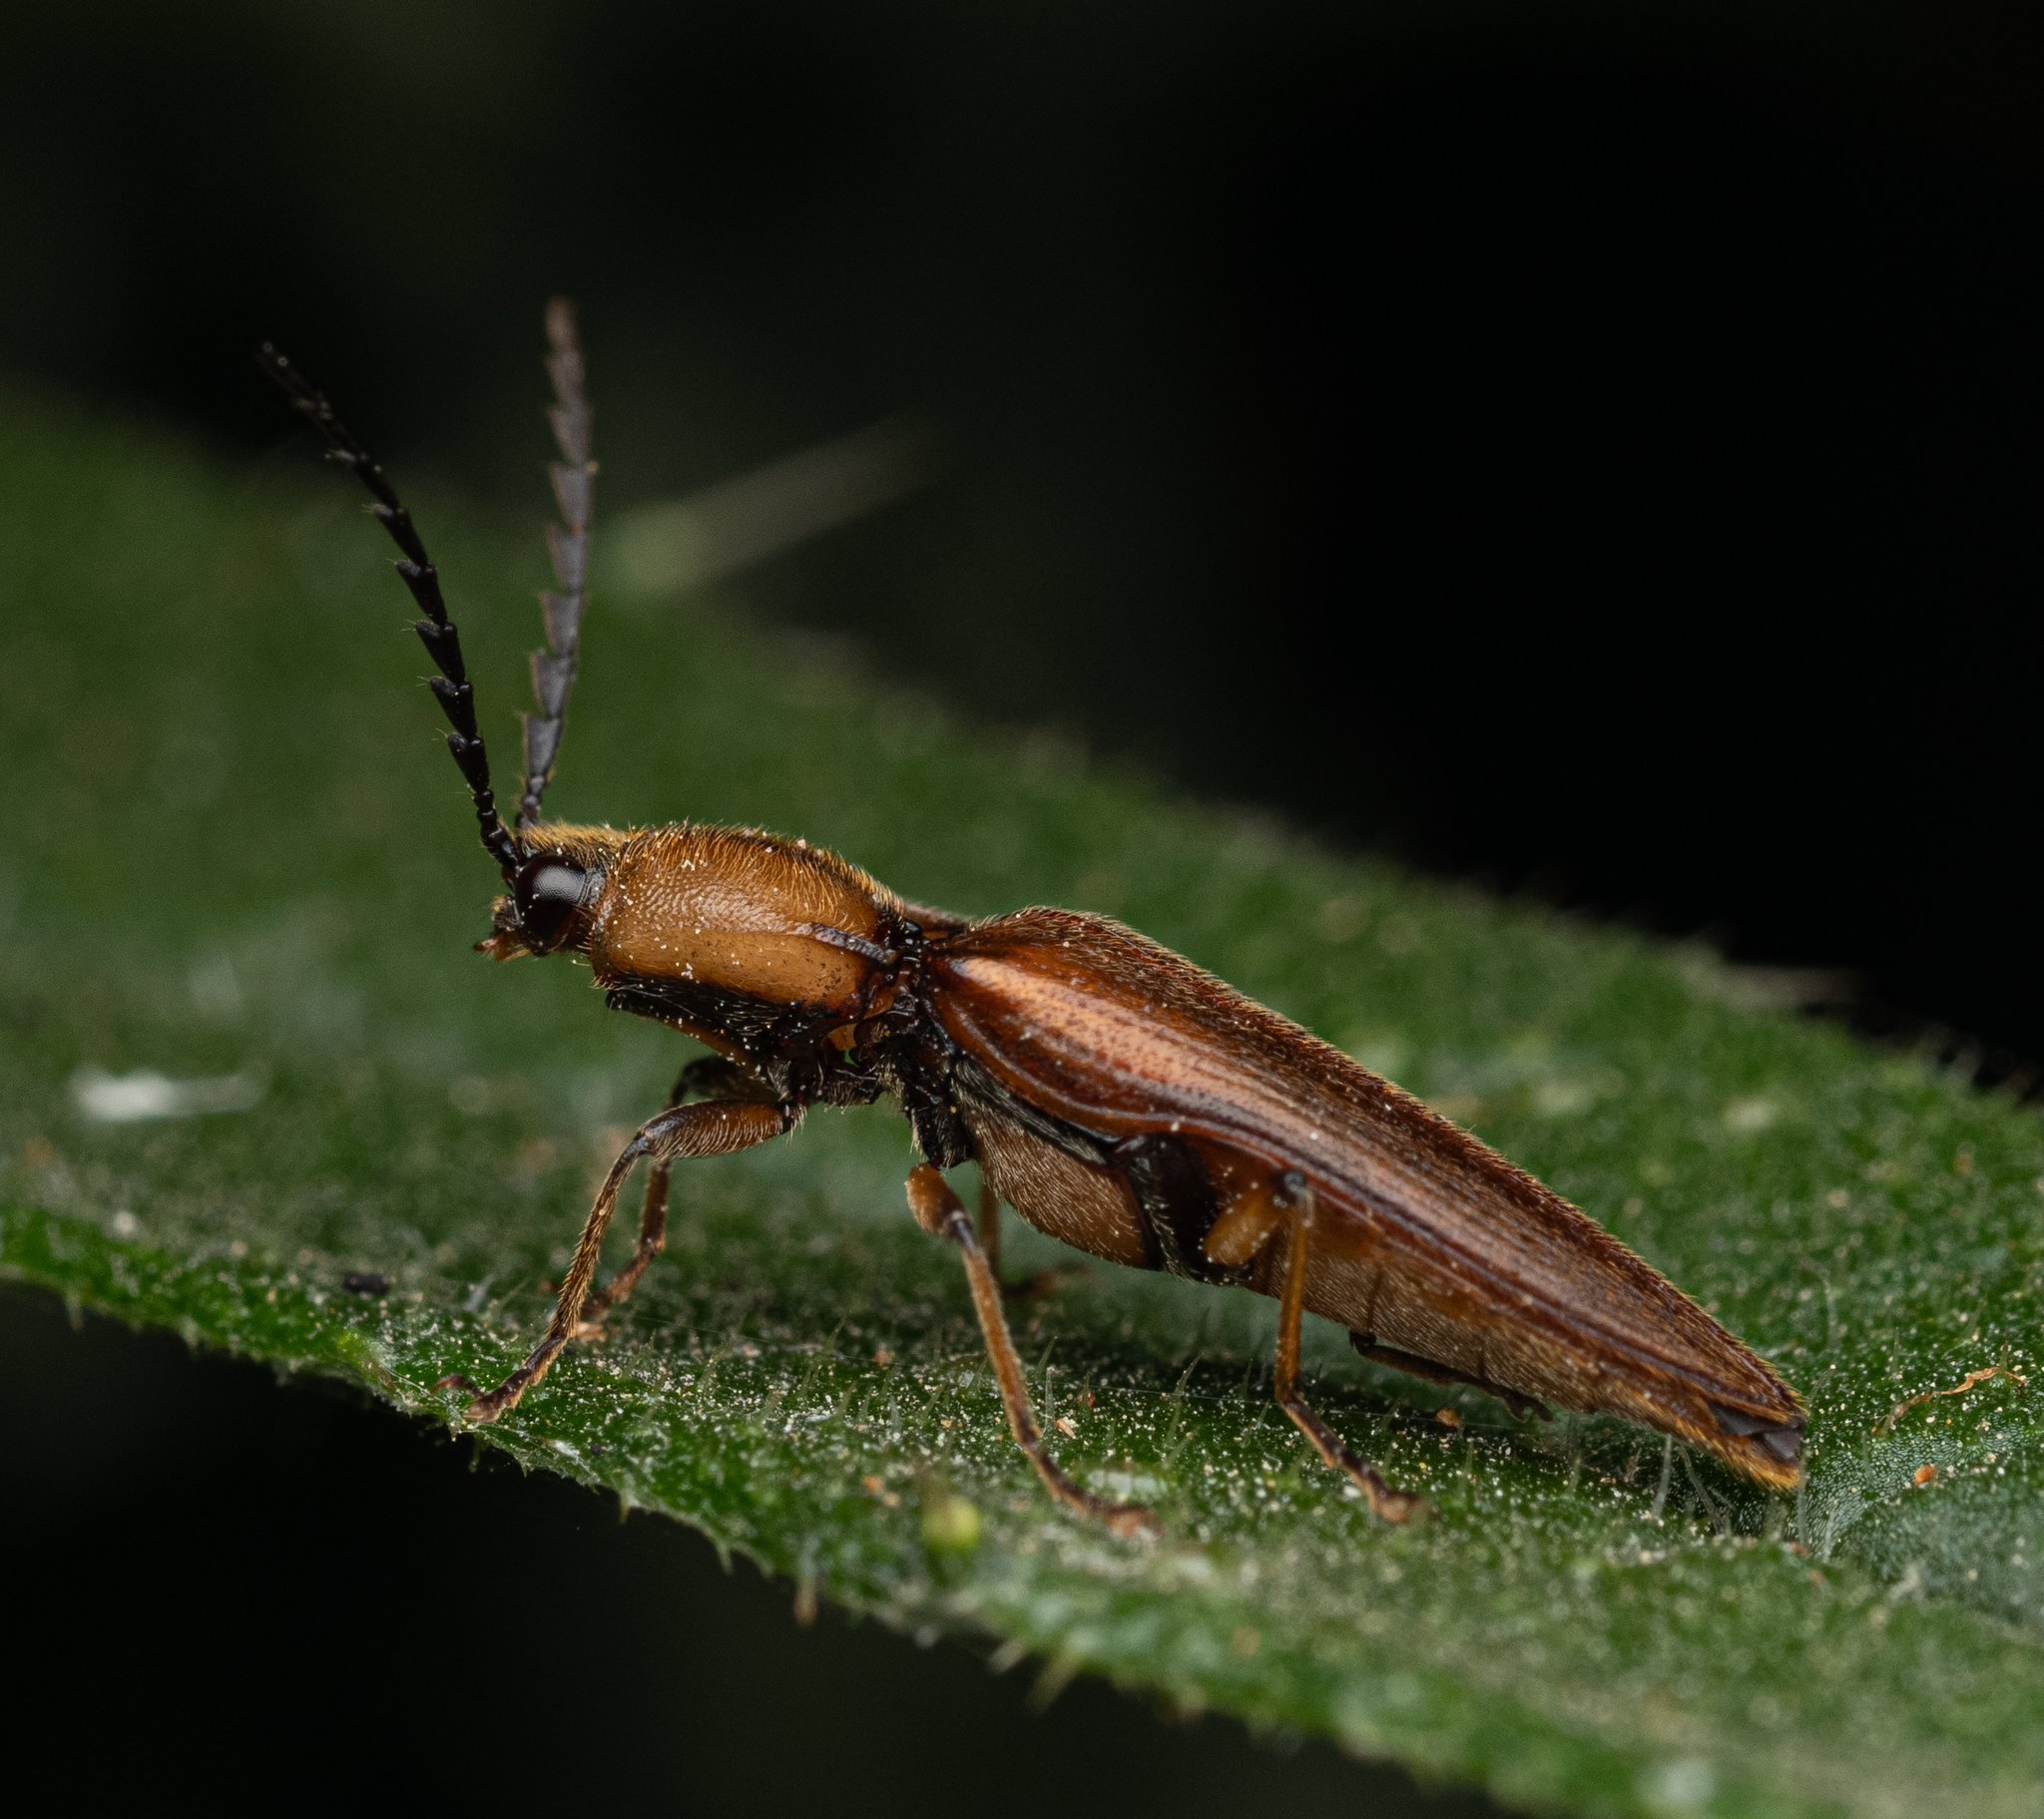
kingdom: Animalia
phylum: Arthropoda
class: Insecta
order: Coleoptera
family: Elateridae
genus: Sphaenelater
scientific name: Sphaenelater
